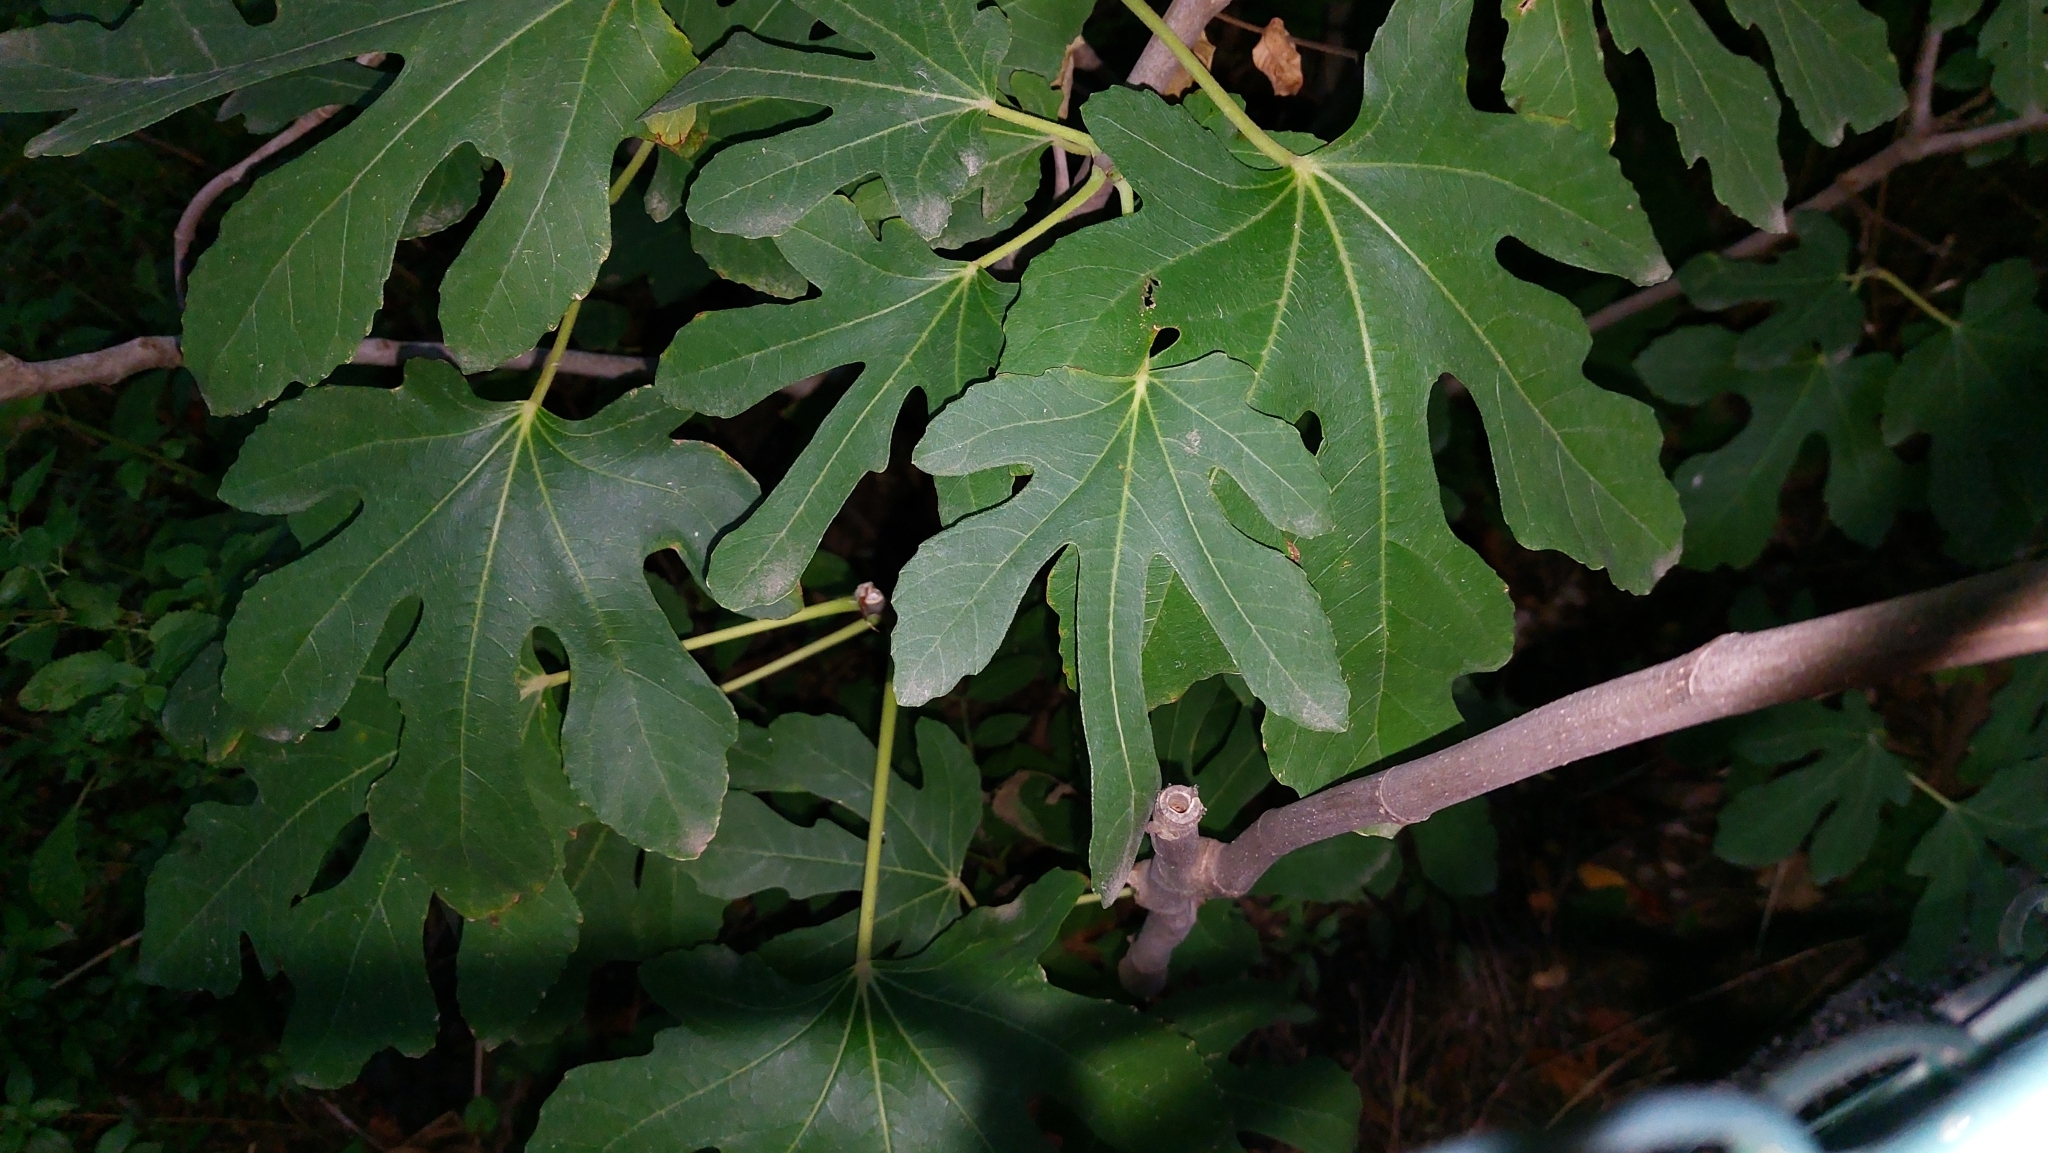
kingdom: Plantae
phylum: Tracheophyta
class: Magnoliopsida
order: Rosales
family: Moraceae
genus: Ficus
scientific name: Ficus carica
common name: Fig
